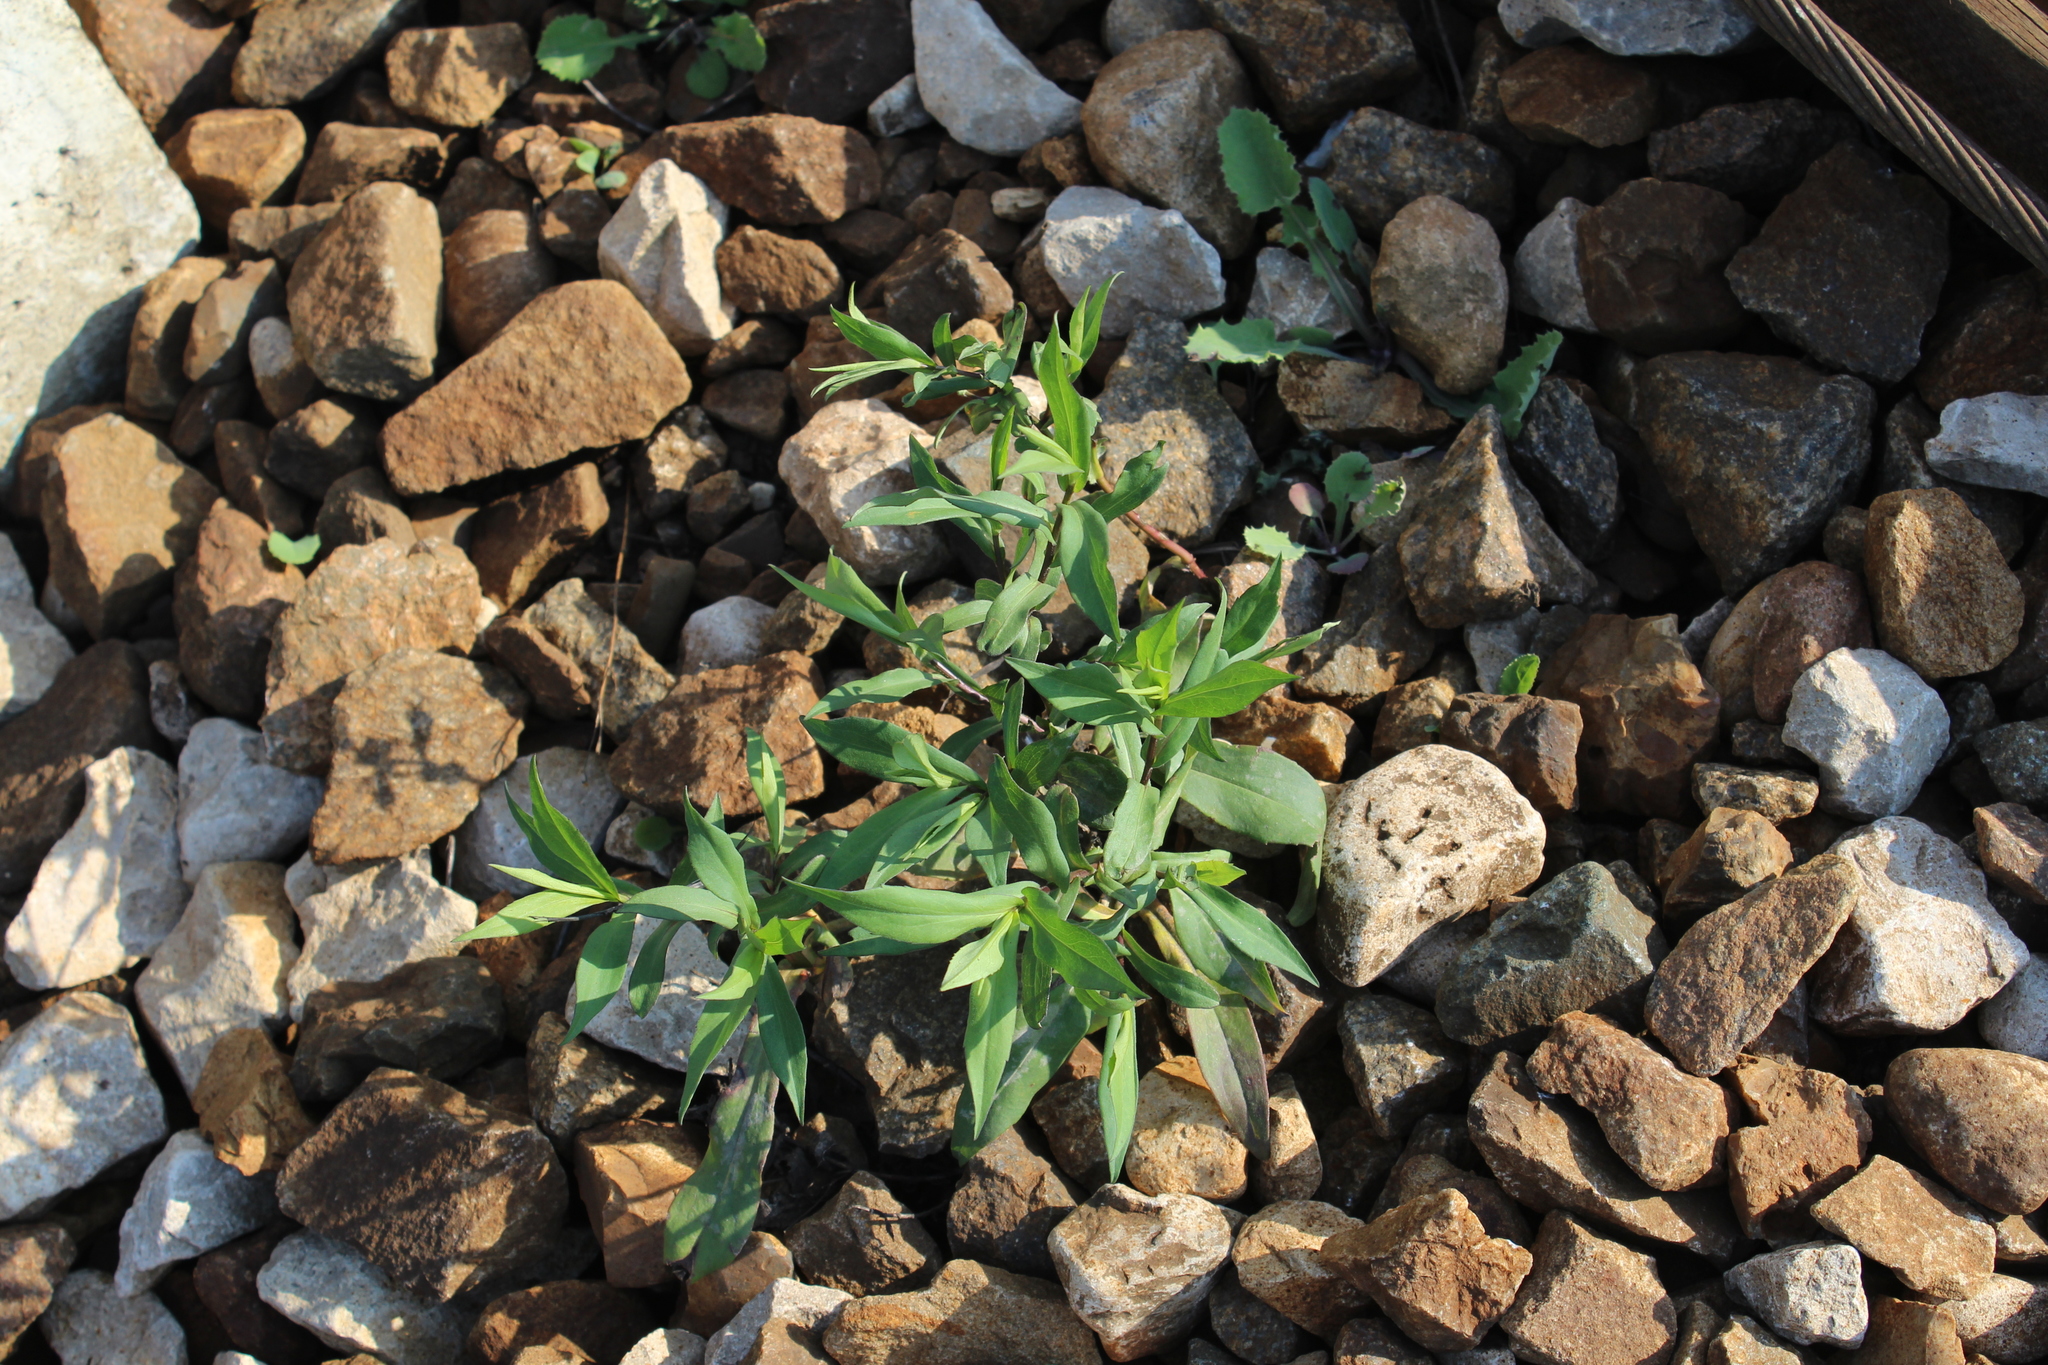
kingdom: Plantae
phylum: Tracheophyta
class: Magnoliopsida
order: Asterales
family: Asteraceae
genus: Symphyotrichum
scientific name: Symphyotrichum
